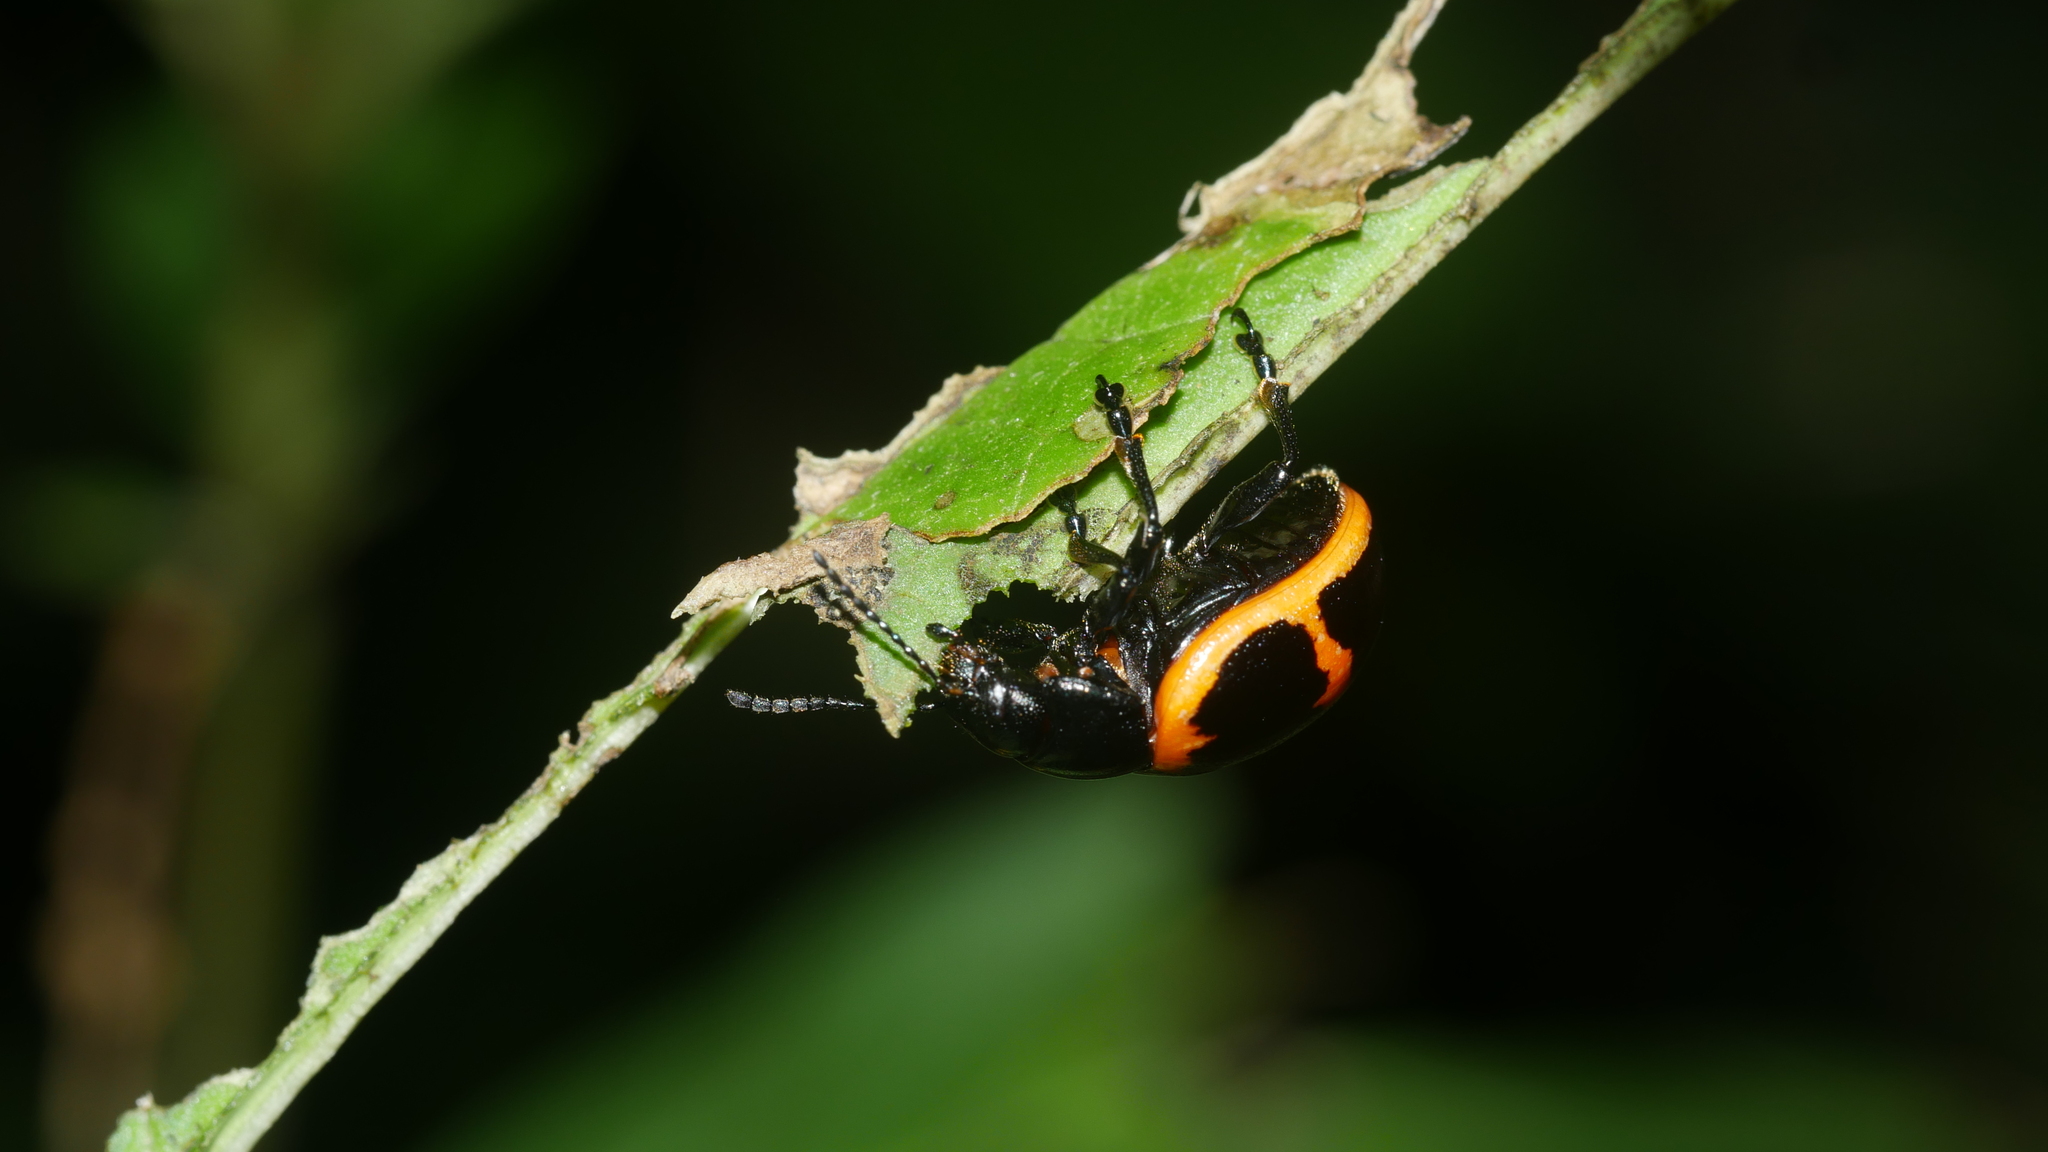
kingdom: Animalia
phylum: Arthropoda
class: Insecta
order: Coleoptera
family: Chrysomelidae
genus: Labidomera
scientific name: Labidomera clivicollis
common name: Swamp milkweed leaf beetle
